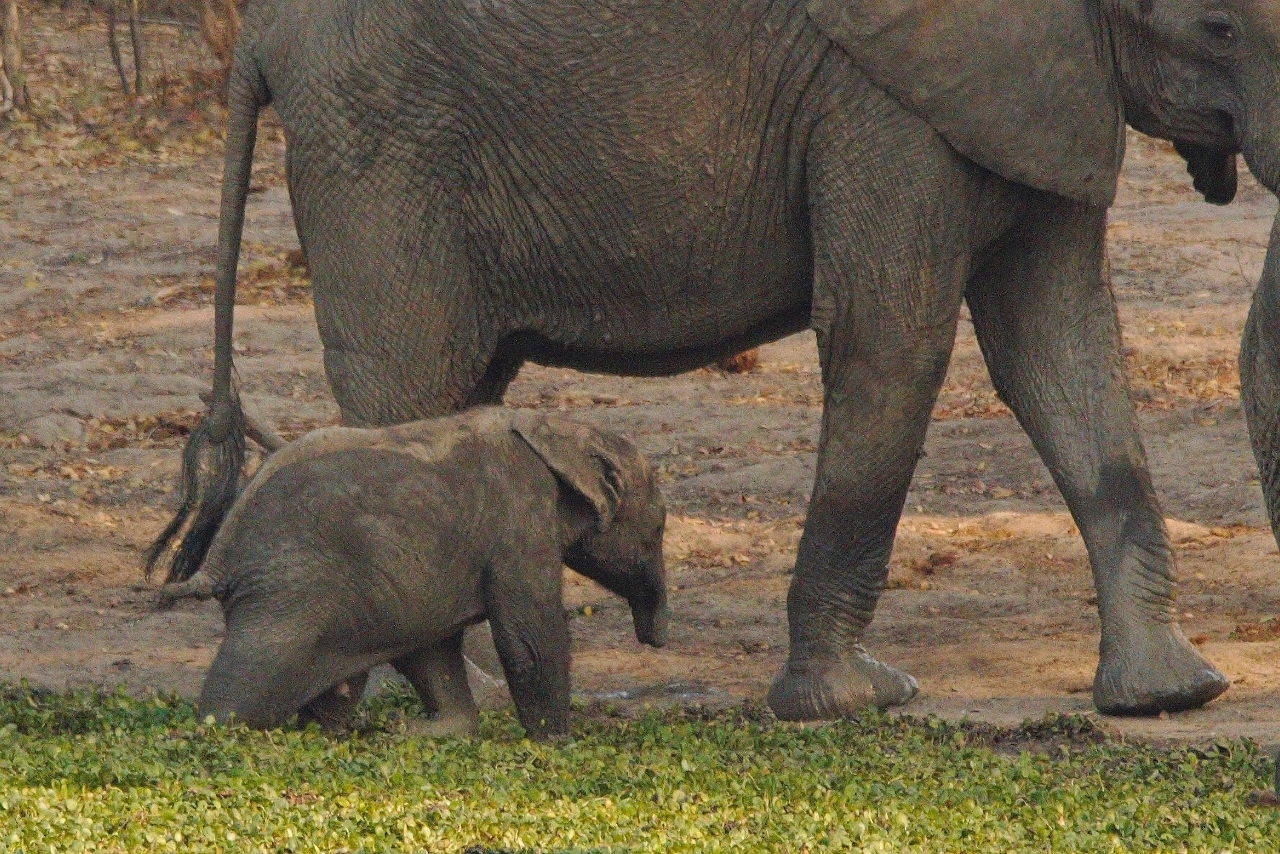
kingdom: Animalia
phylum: Chordata
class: Mammalia
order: Proboscidea
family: Elephantidae
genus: Loxodonta
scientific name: Loxodonta africana
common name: African elephant
